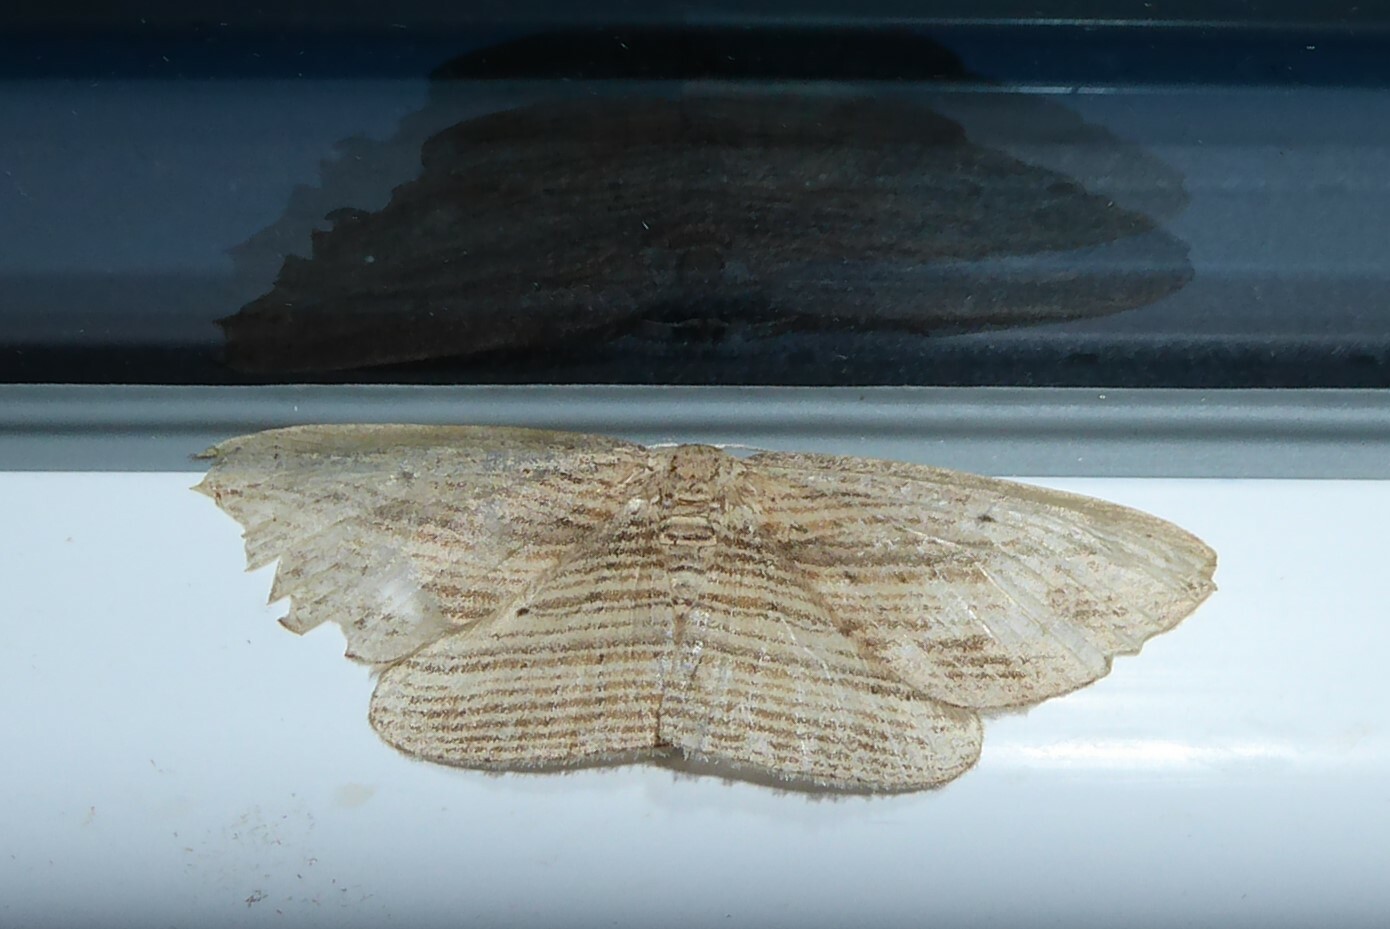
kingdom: Animalia
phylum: Arthropoda
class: Insecta
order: Lepidoptera
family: Geometridae
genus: Epiphryne
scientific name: Epiphryne verriculata
